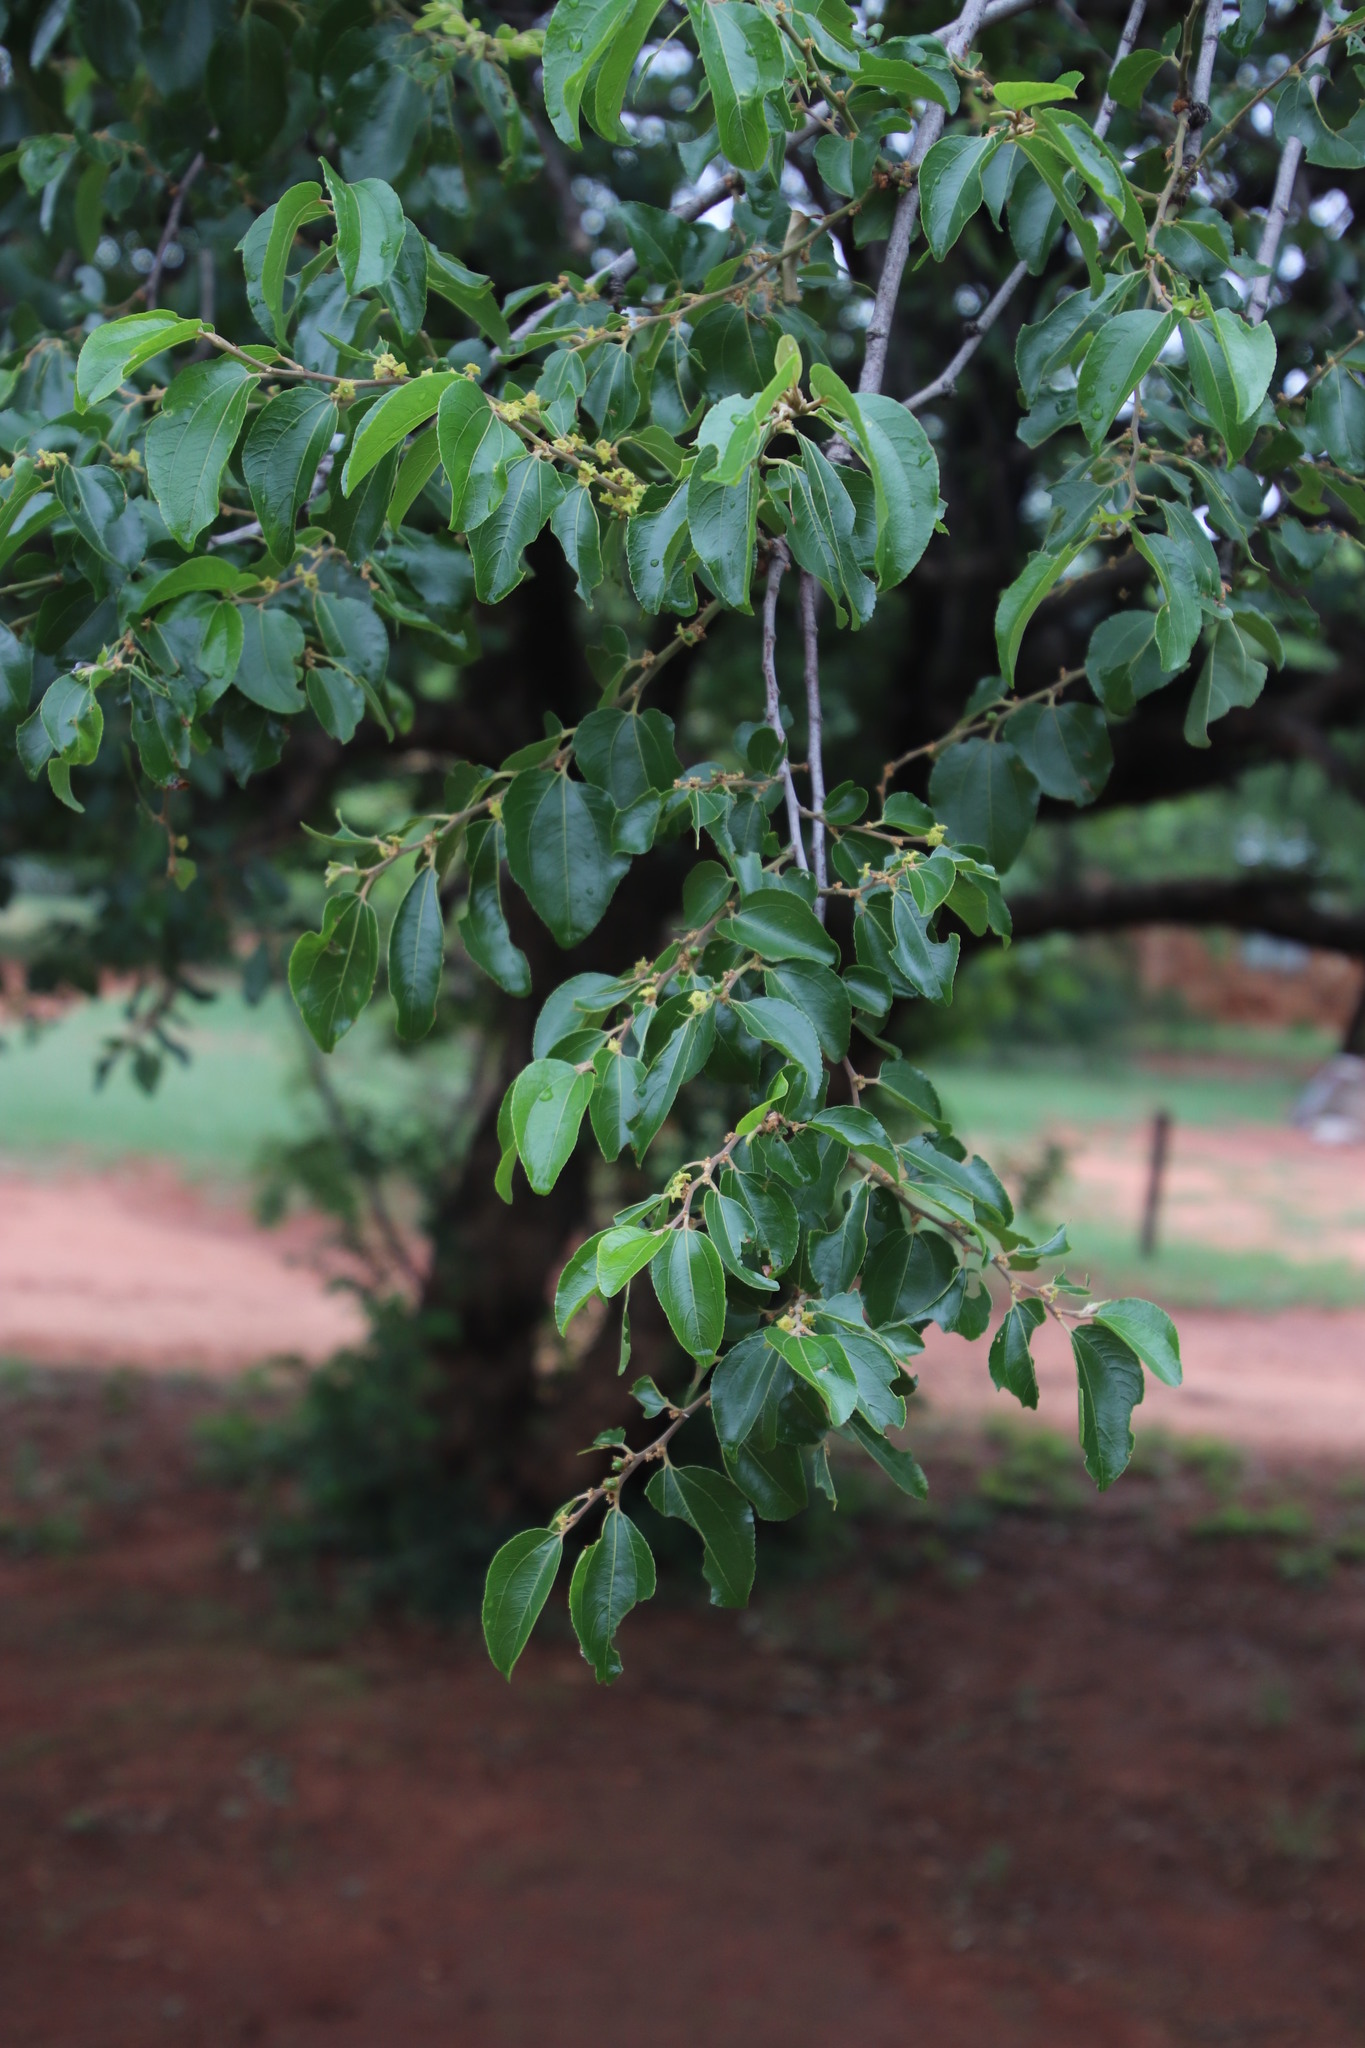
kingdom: Plantae
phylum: Tracheophyta
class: Magnoliopsida
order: Rosales
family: Rhamnaceae
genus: Ziziphus
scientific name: Ziziphus mucronata
